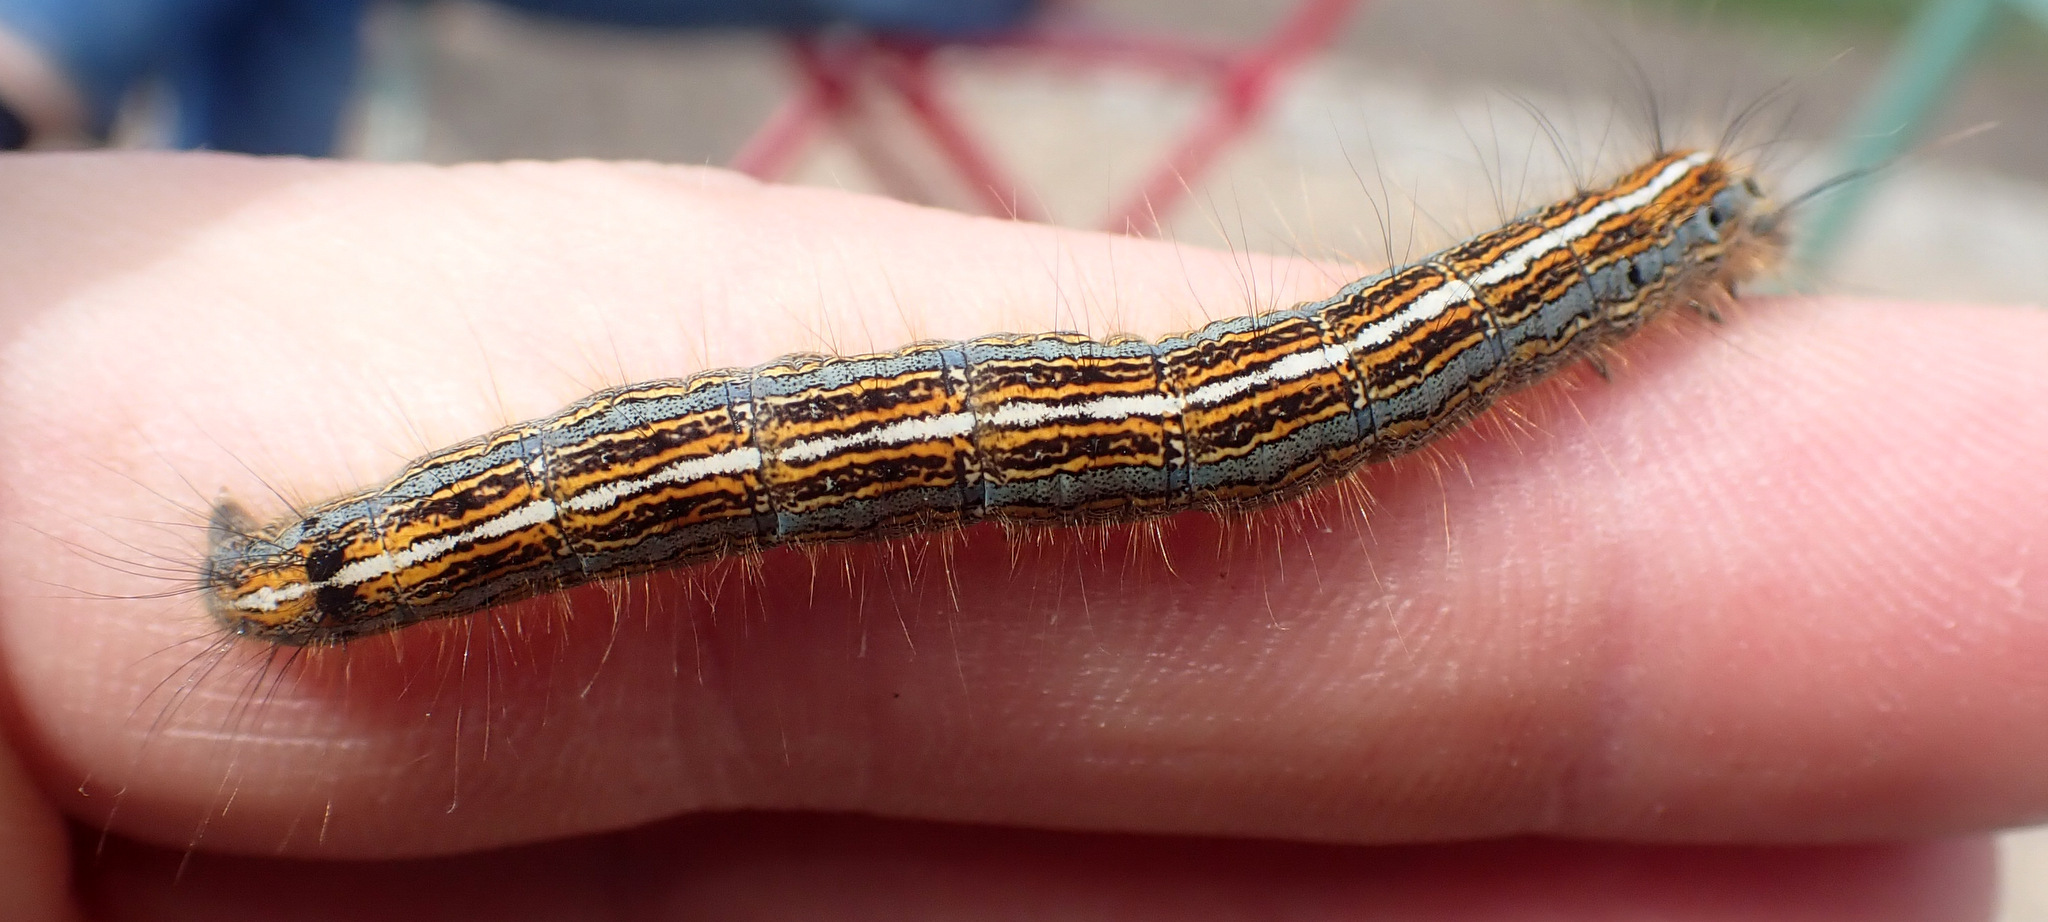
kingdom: Animalia
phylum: Arthropoda
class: Insecta
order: Lepidoptera
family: Lasiocampidae
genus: Malacosoma
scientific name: Malacosoma neustria
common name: The lackey
